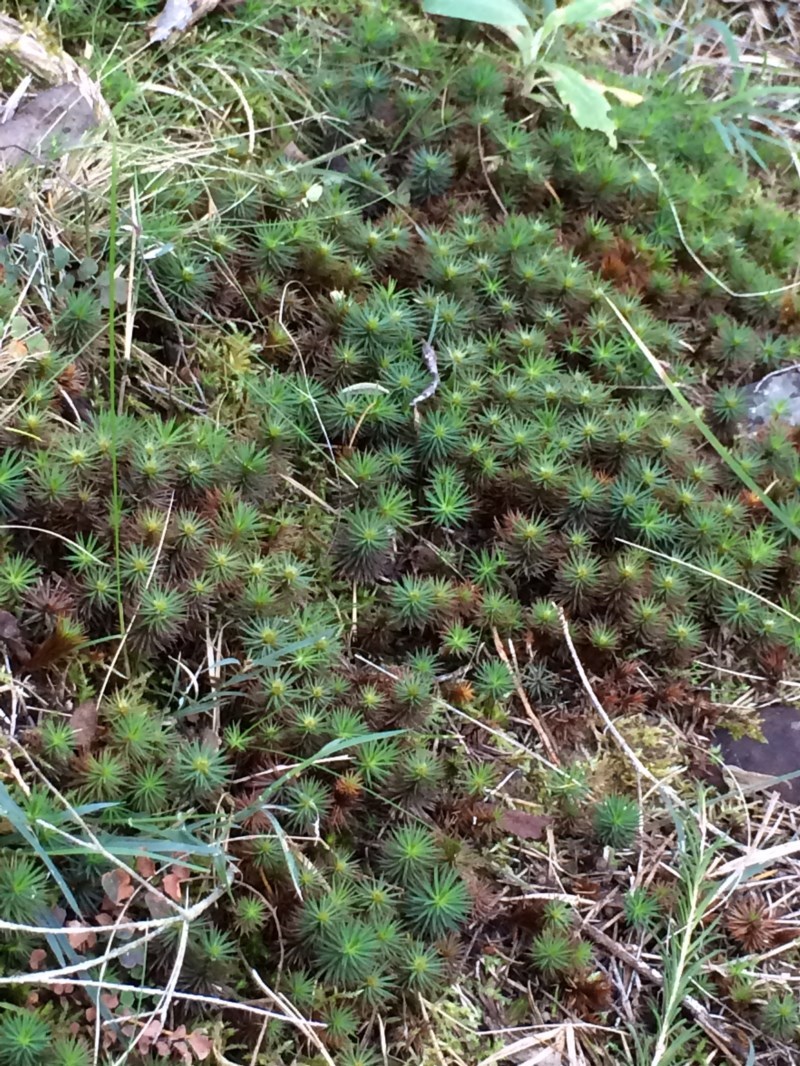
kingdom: Plantae
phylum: Bryophyta
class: Polytrichopsida
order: Polytrichales
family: Polytrichaceae
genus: Dawsonia
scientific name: Dawsonia polytrichoides
